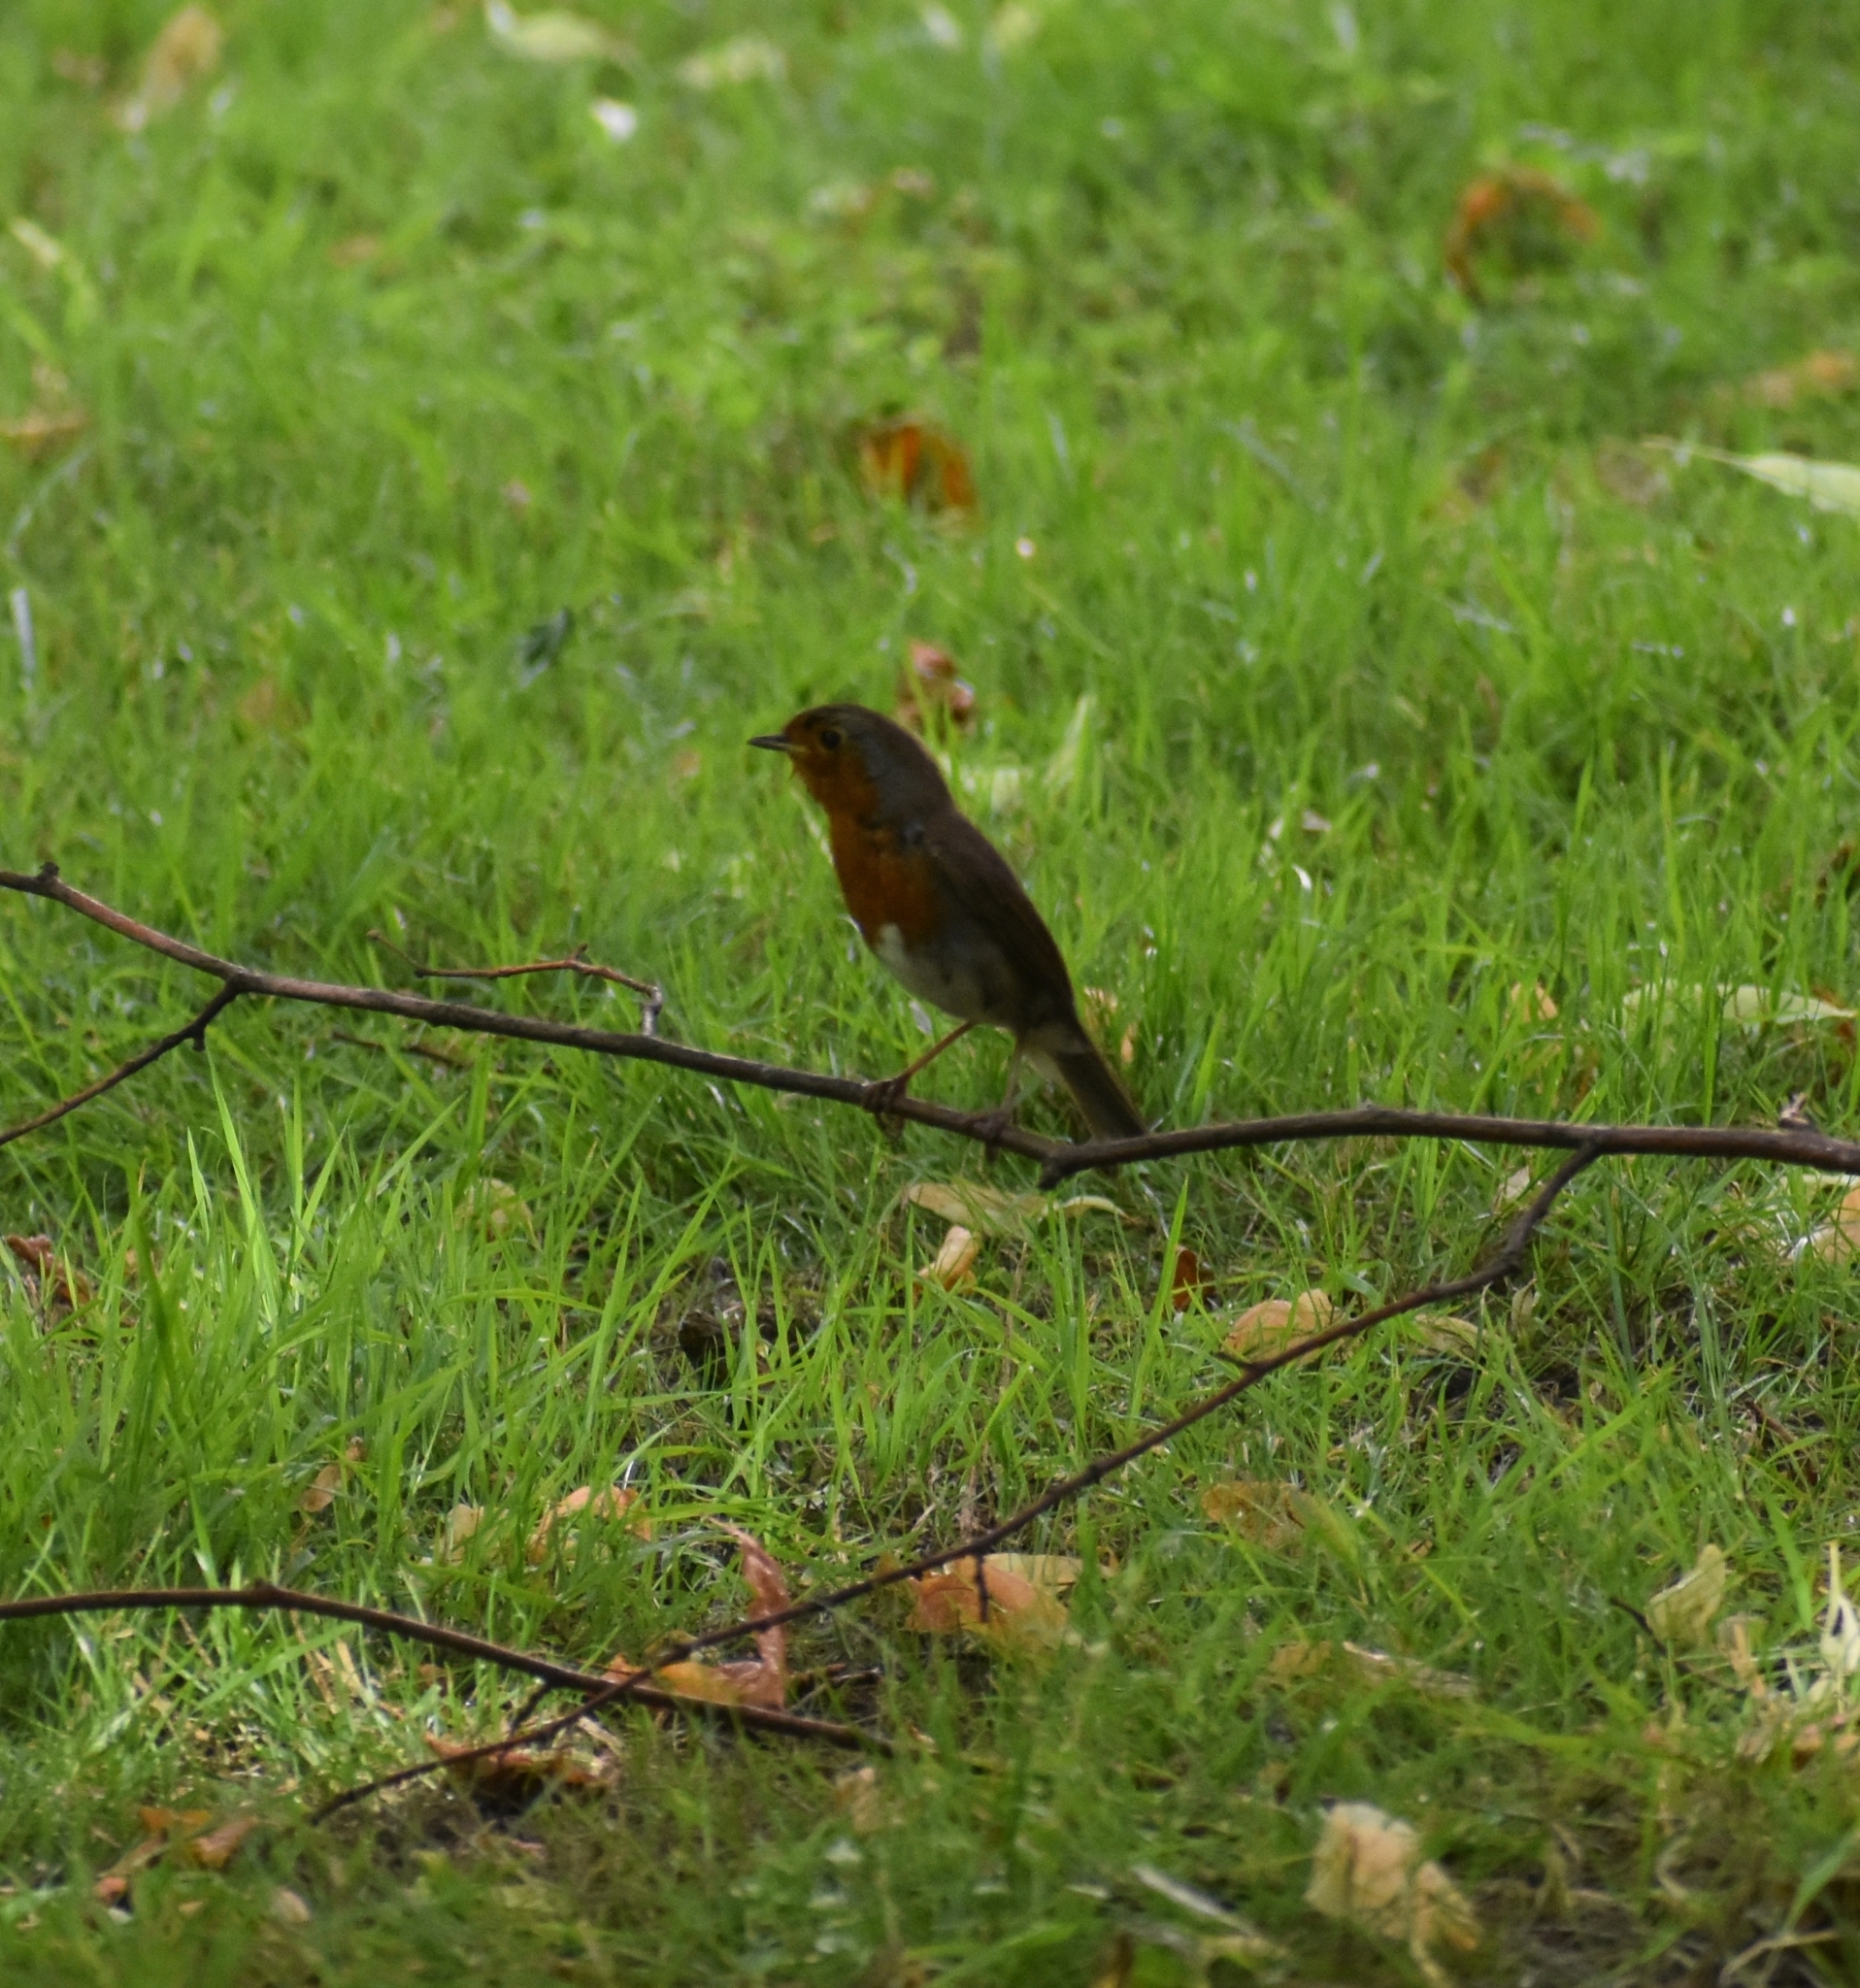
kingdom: Animalia
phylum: Chordata
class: Aves
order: Passeriformes
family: Muscicapidae
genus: Erithacus
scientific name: Erithacus rubecula
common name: European robin
